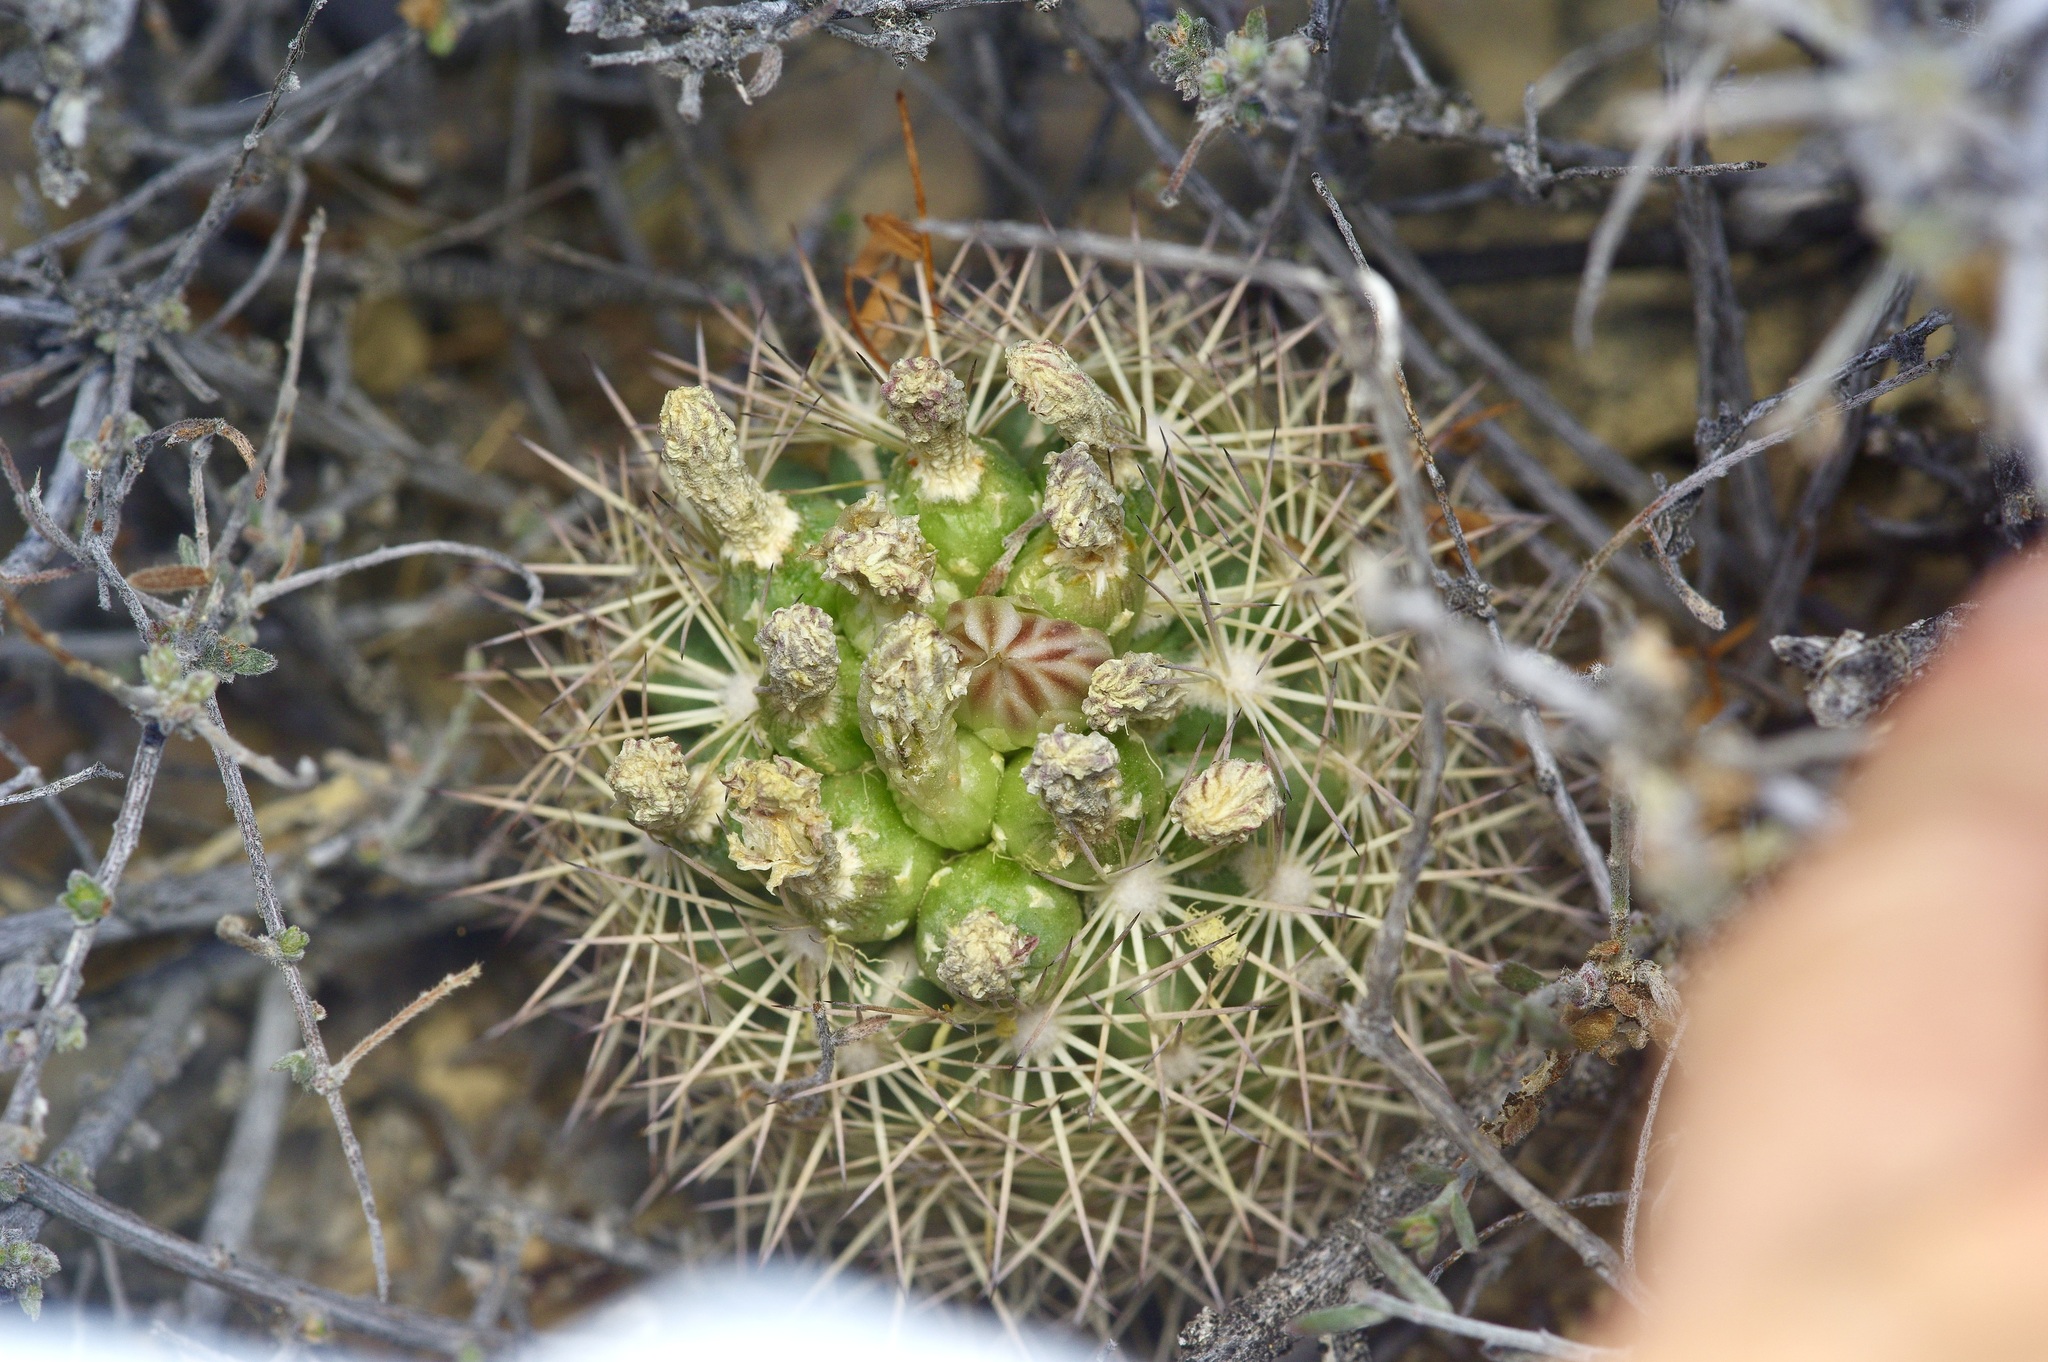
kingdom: Plantae
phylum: Tracheophyta
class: Magnoliopsida
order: Caryophyllales
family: Cactaceae
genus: Sclerocactus
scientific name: Sclerocactus warnockii
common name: Pineapple cactus
